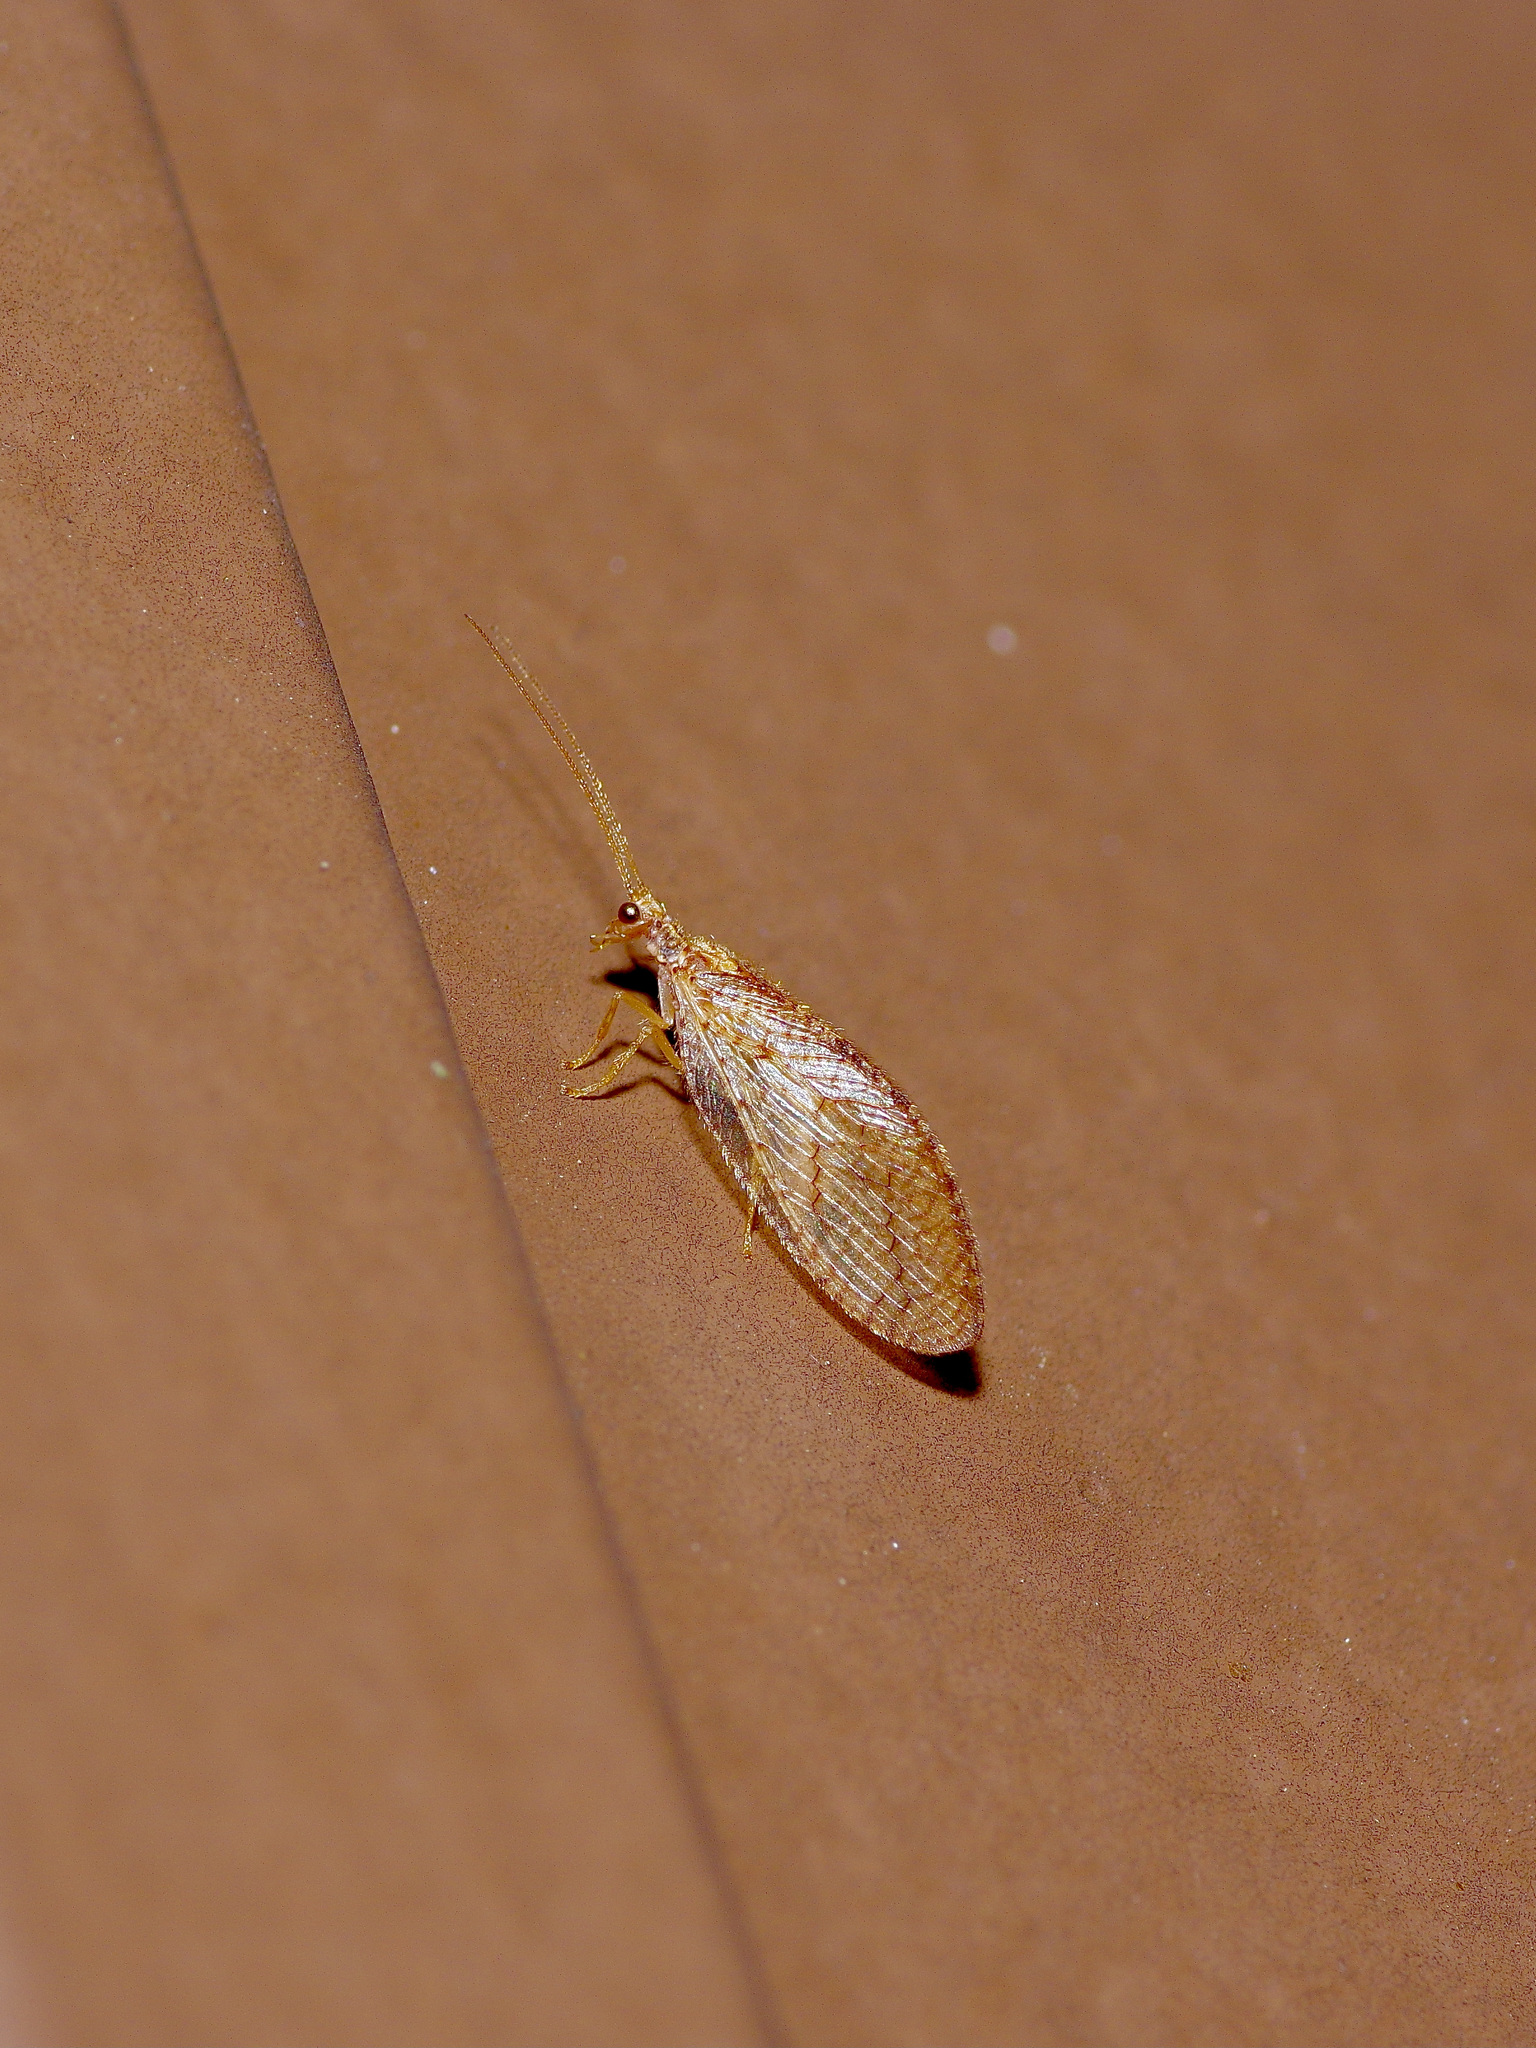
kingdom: Animalia
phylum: Arthropoda
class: Insecta
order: Neuroptera
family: Hemerobiidae
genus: Micromus
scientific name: Micromus posticus
